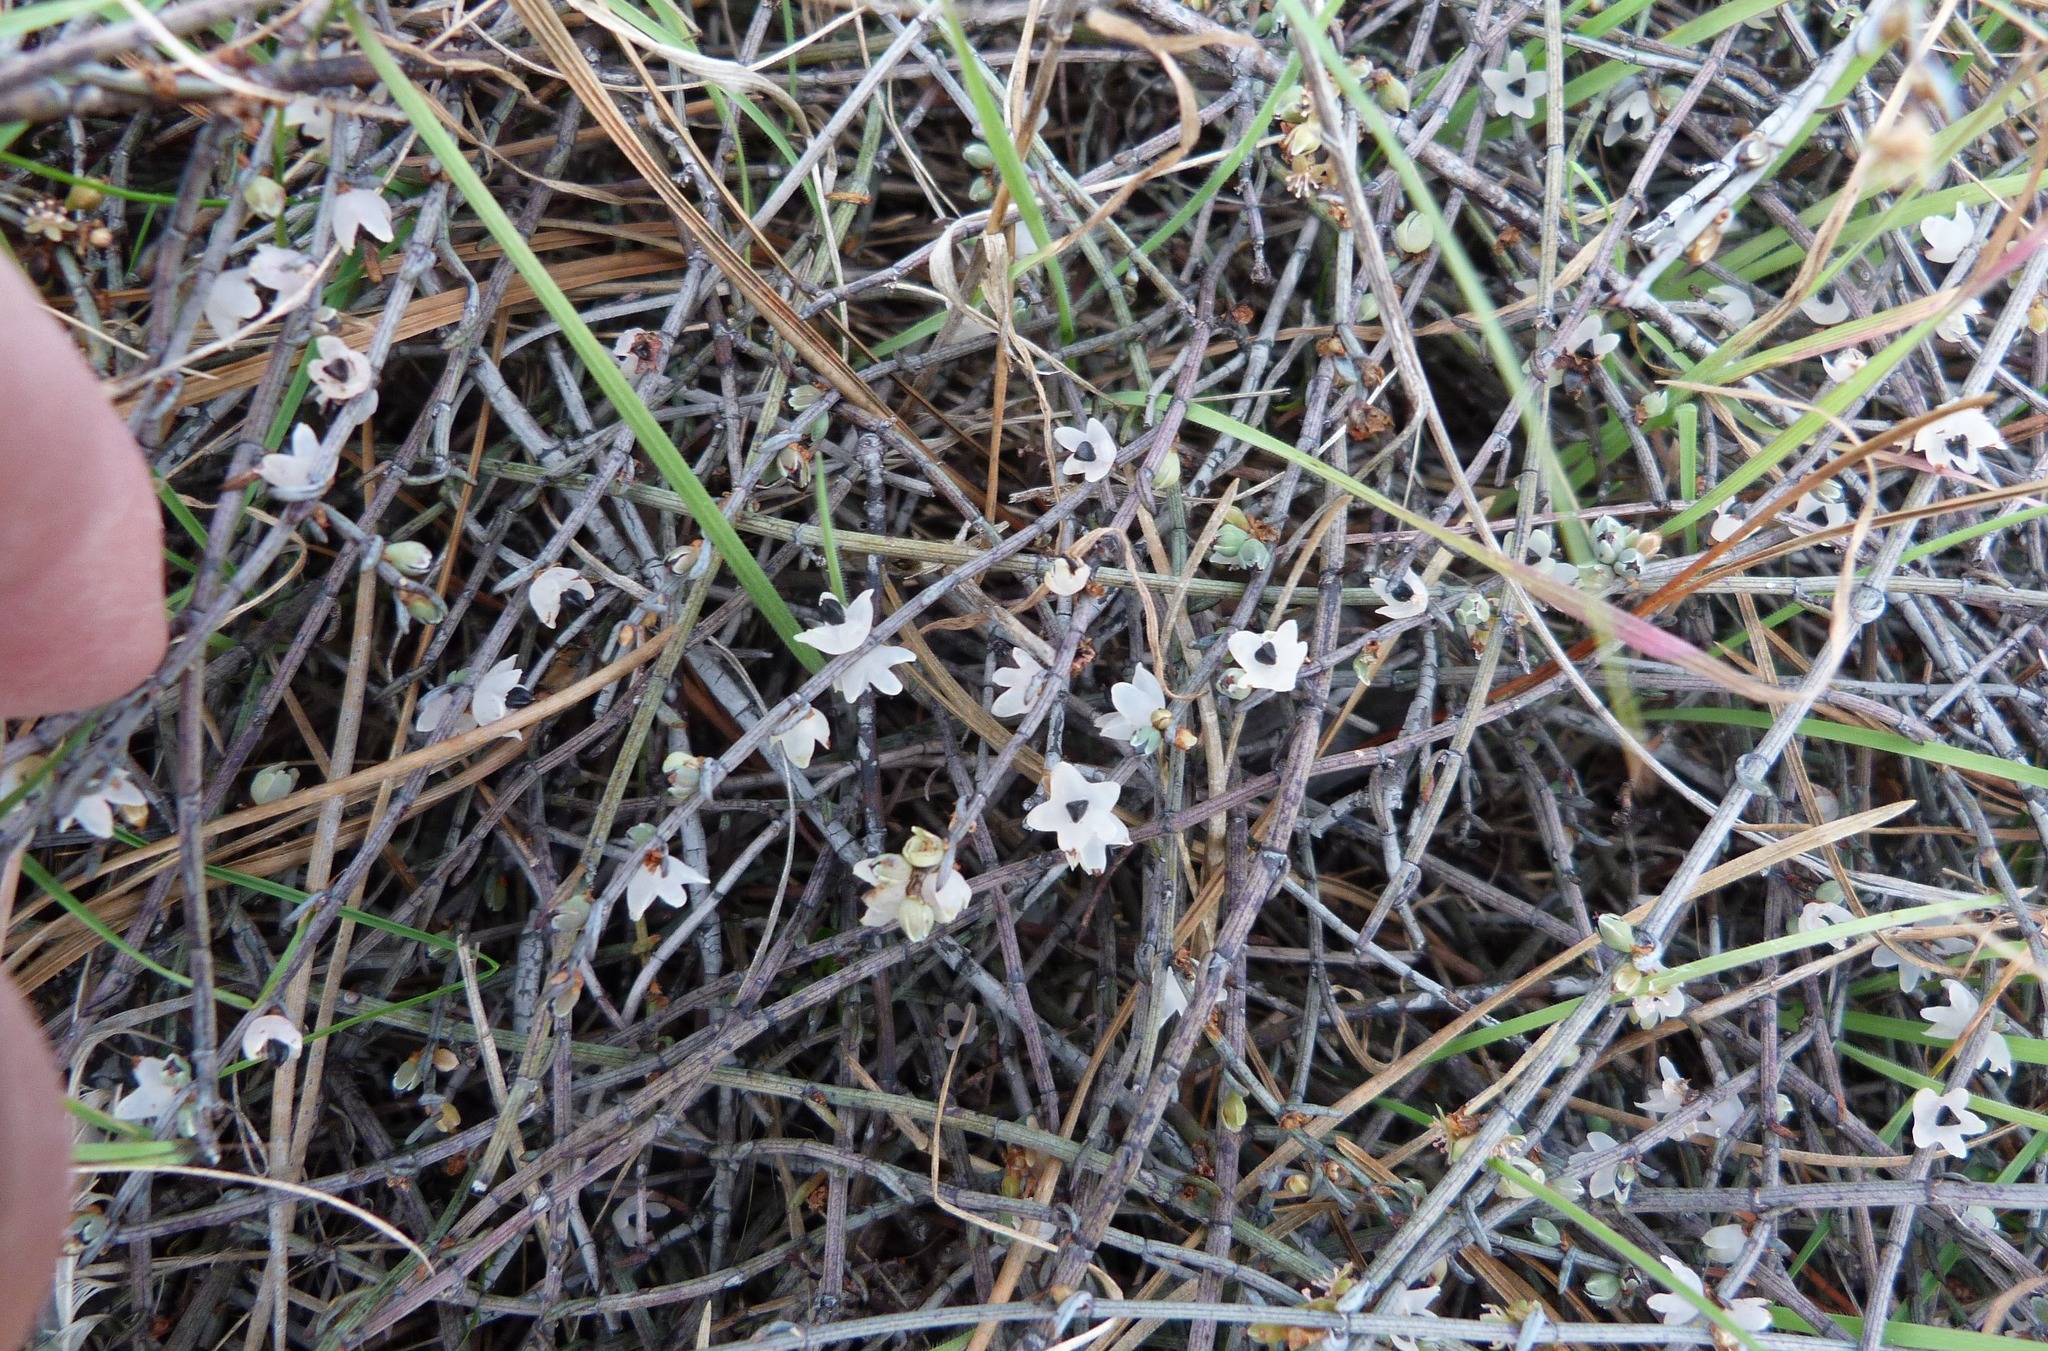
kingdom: Plantae
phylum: Tracheophyta
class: Magnoliopsida
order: Caryophyllales
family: Polygonaceae
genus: Muehlenbeckia
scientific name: Muehlenbeckia ephedroides
